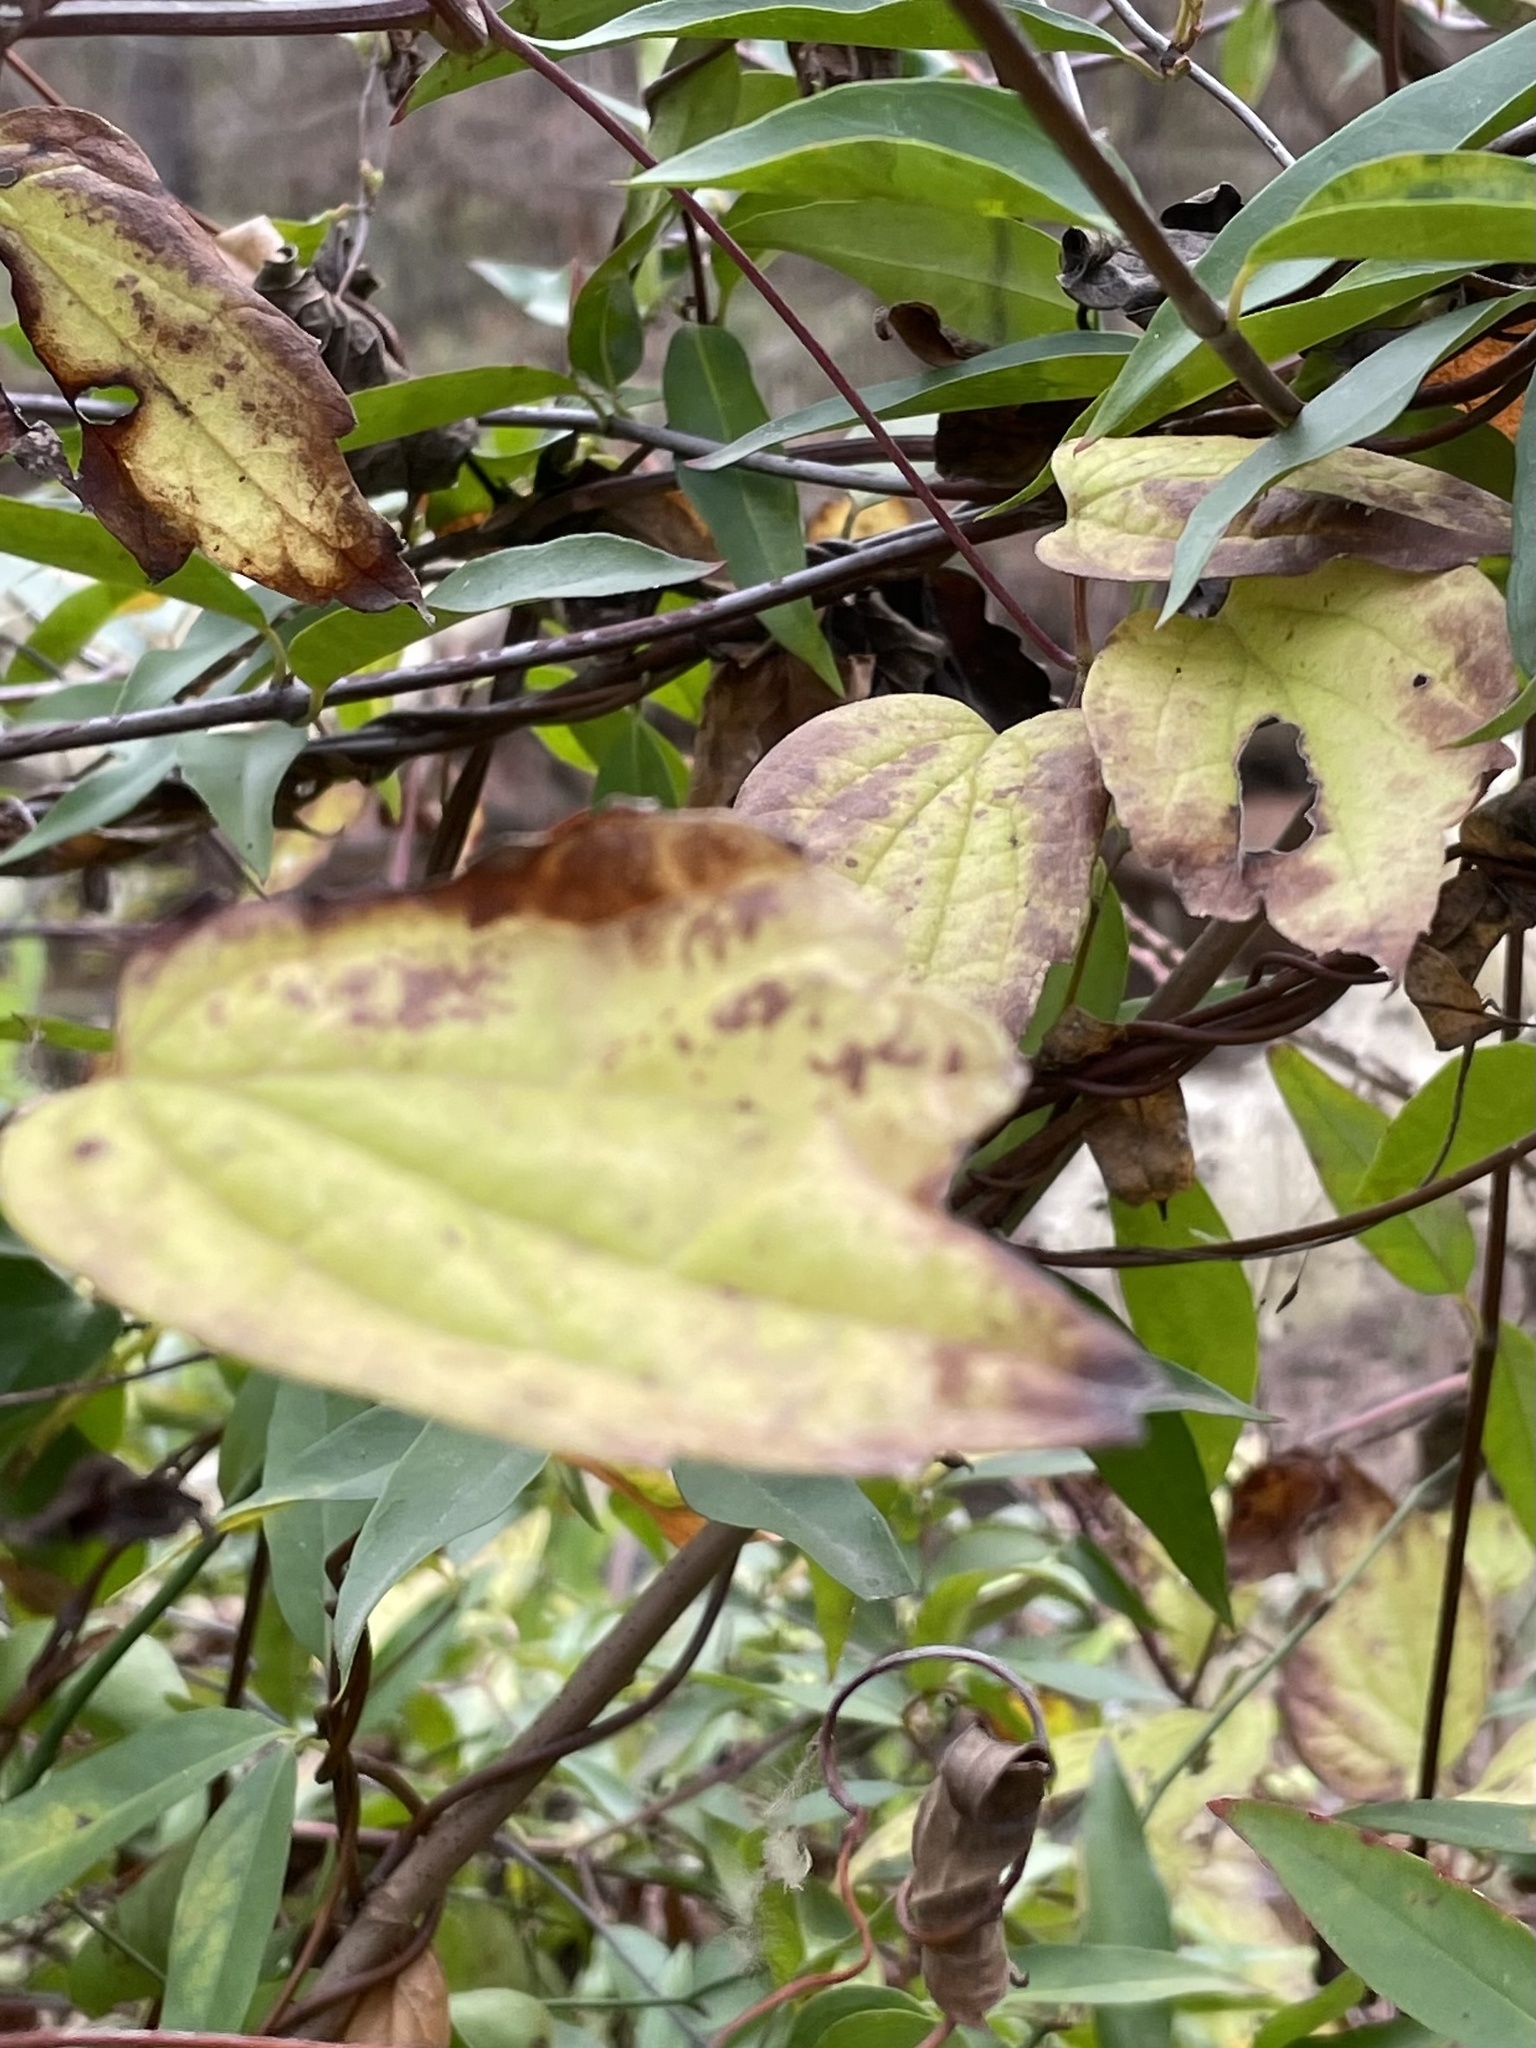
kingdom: Plantae
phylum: Tracheophyta
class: Magnoliopsida
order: Ranunculales
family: Ranunculaceae
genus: Clematis
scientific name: Clematis virginiana
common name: Virgin's-bower
